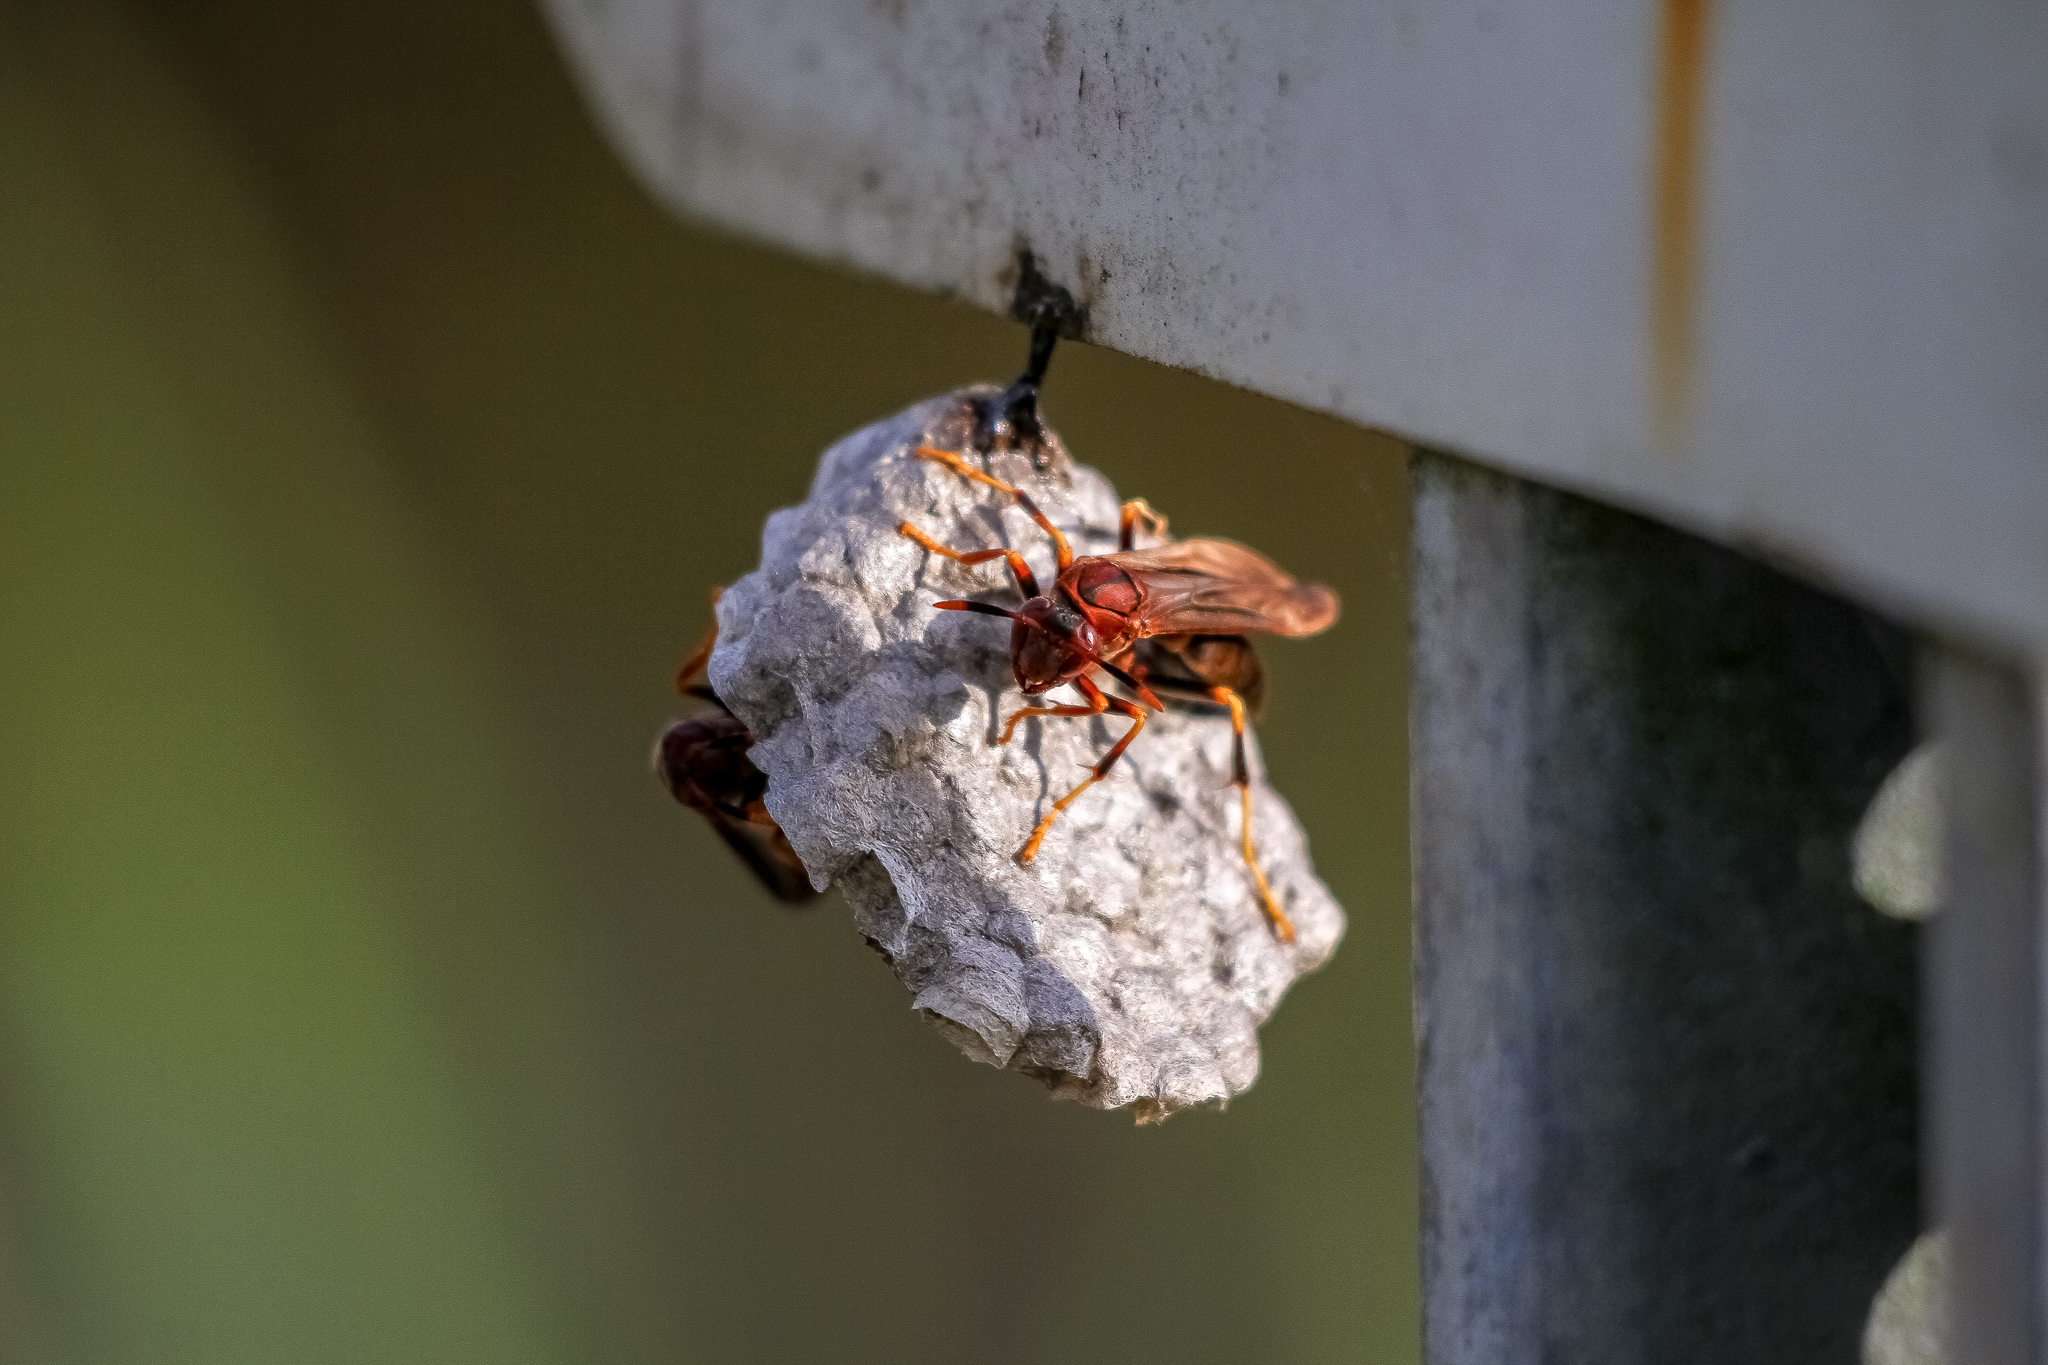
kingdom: Animalia
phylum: Arthropoda
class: Insecta
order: Hymenoptera
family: Eumenidae
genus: Polistes
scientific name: Polistes annularis
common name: Ringed paper wasp
